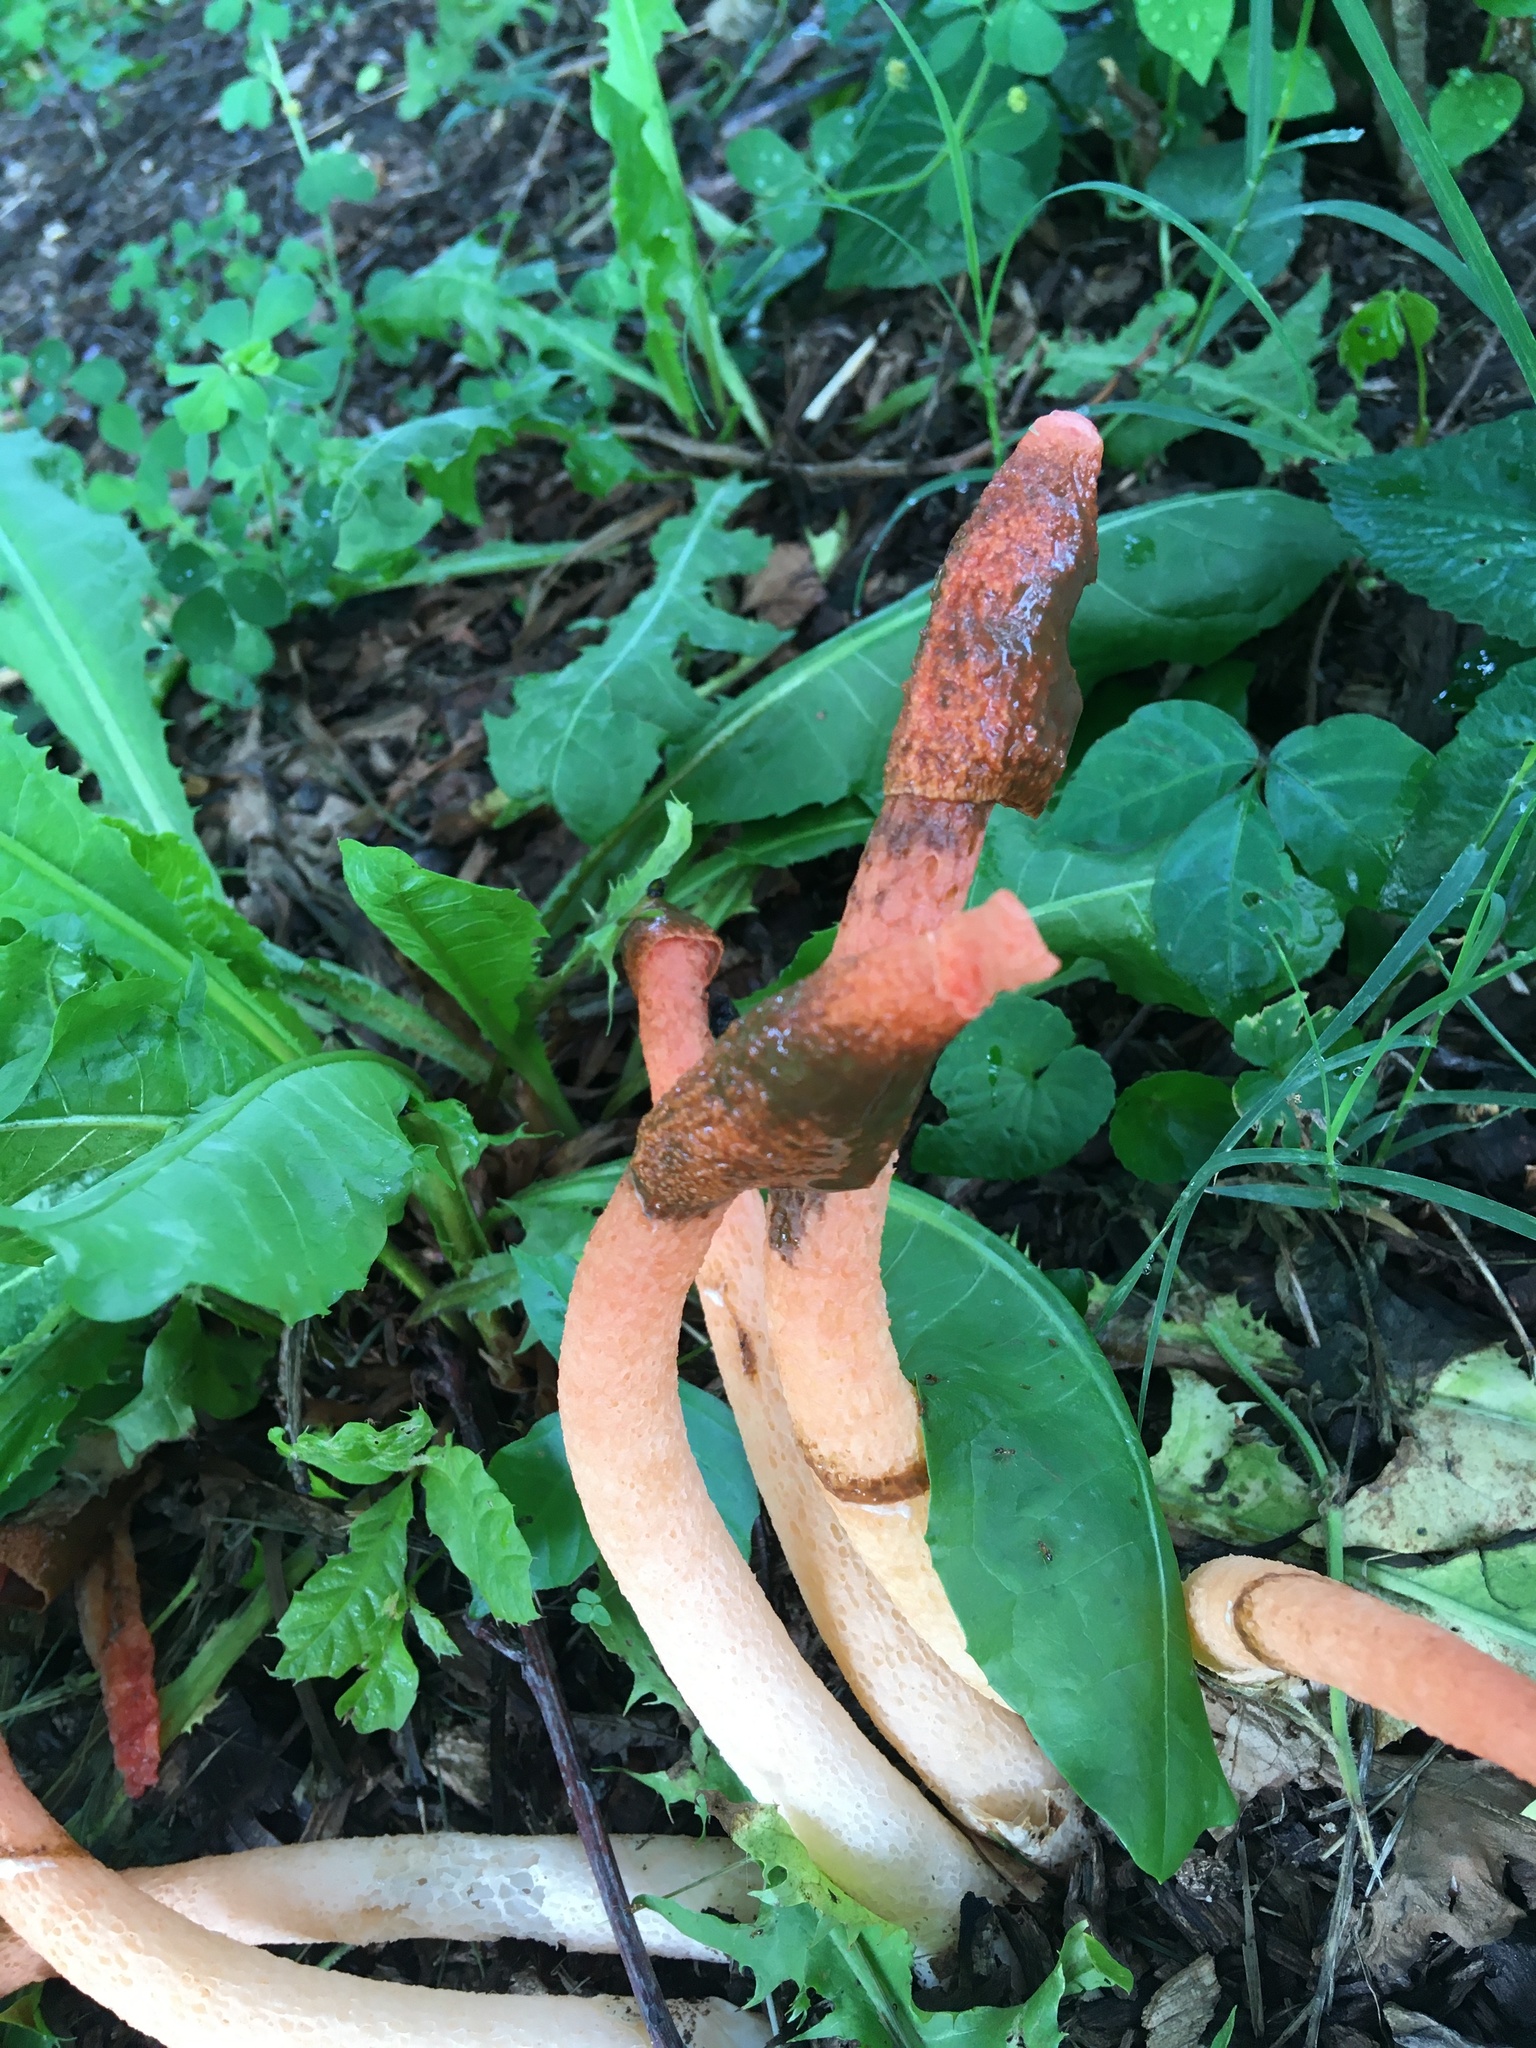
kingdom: Fungi
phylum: Basidiomycota
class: Agaricomycetes
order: Phallales
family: Phallaceae
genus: Phallus
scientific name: Phallus rugulosus
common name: Wrinkly stinkhorn
